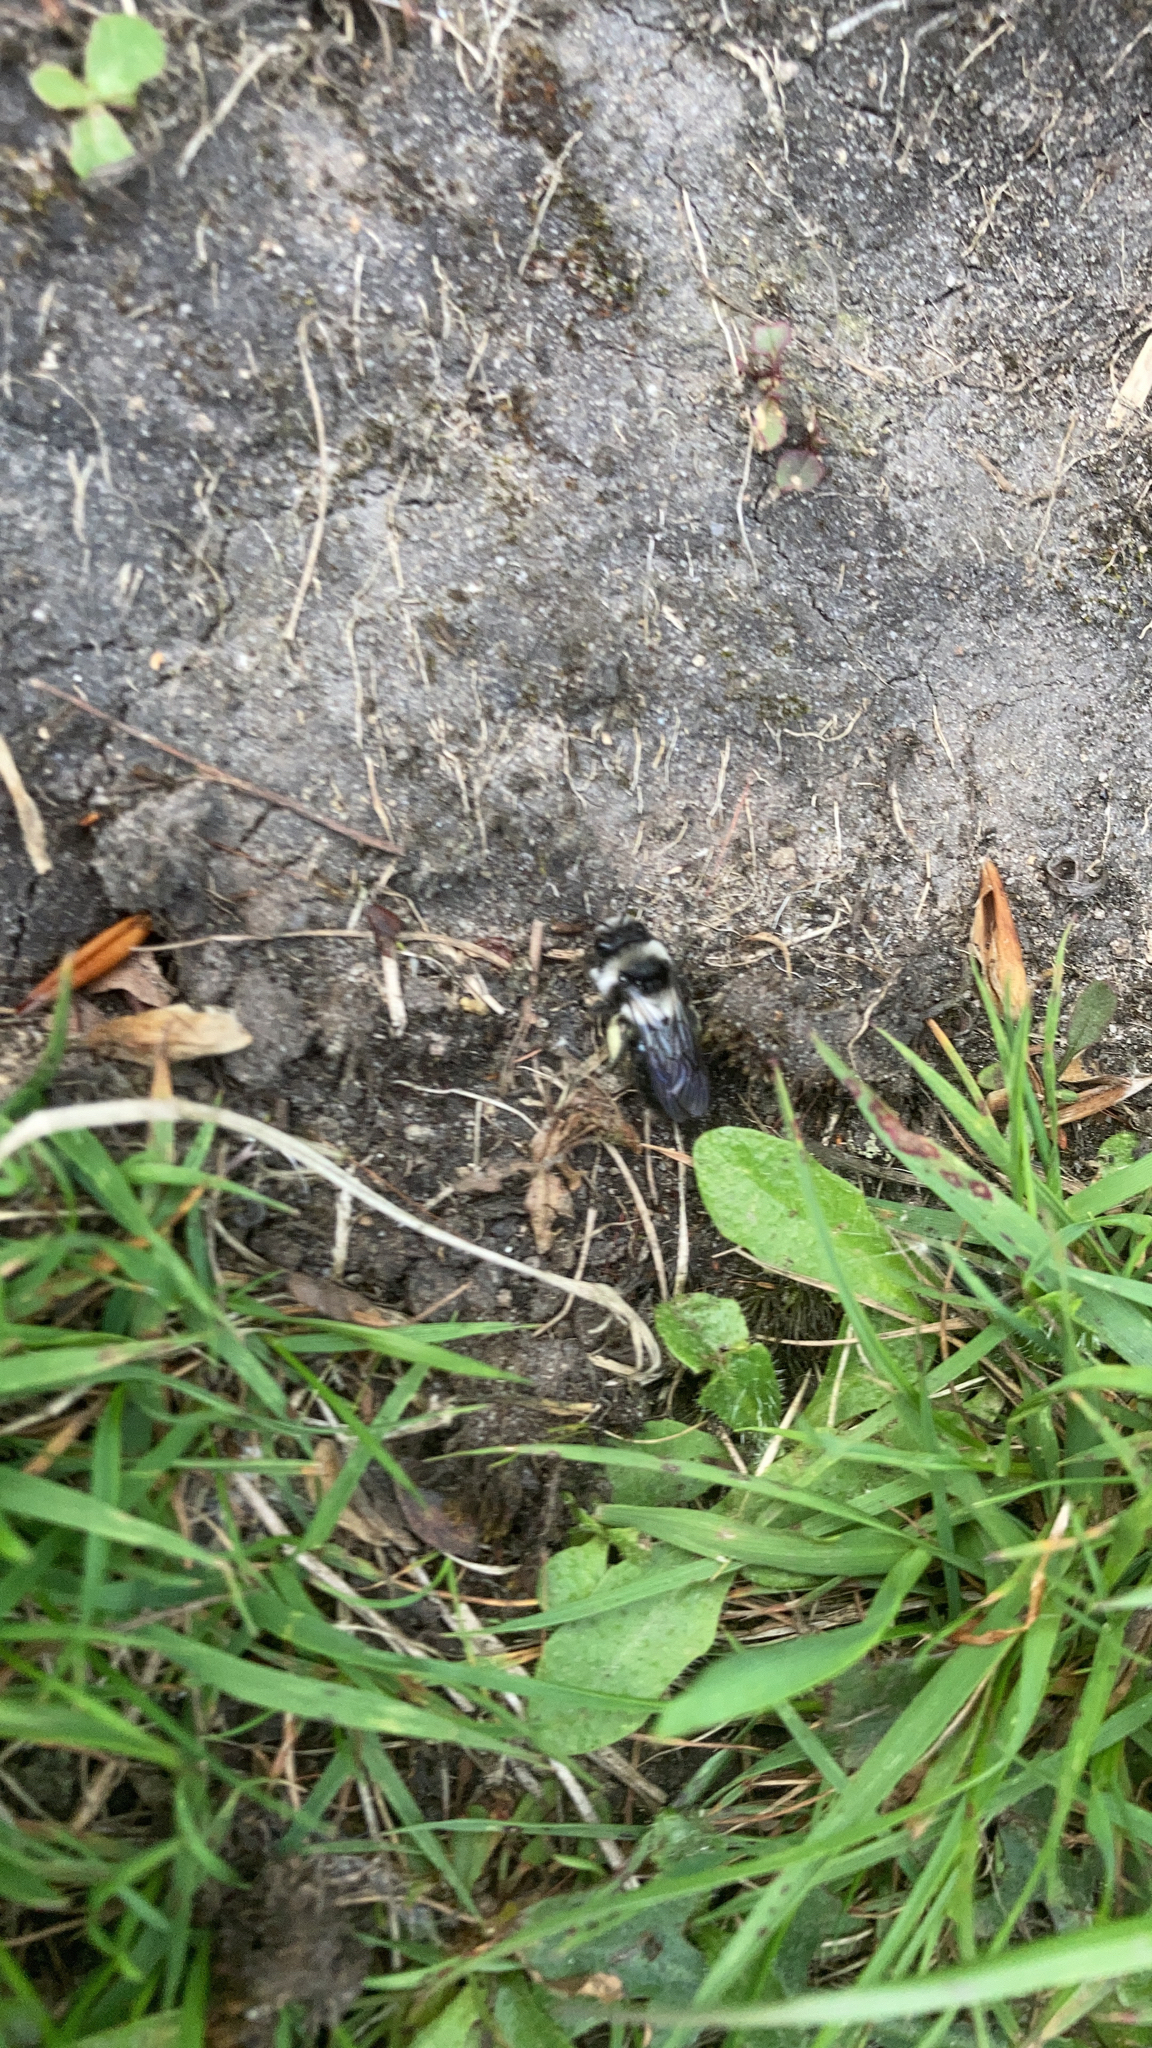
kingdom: Animalia
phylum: Arthropoda
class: Insecta
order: Hymenoptera
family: Andrenidae
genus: Andrena
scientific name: Andrena cineraria
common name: Ashy mining bee
